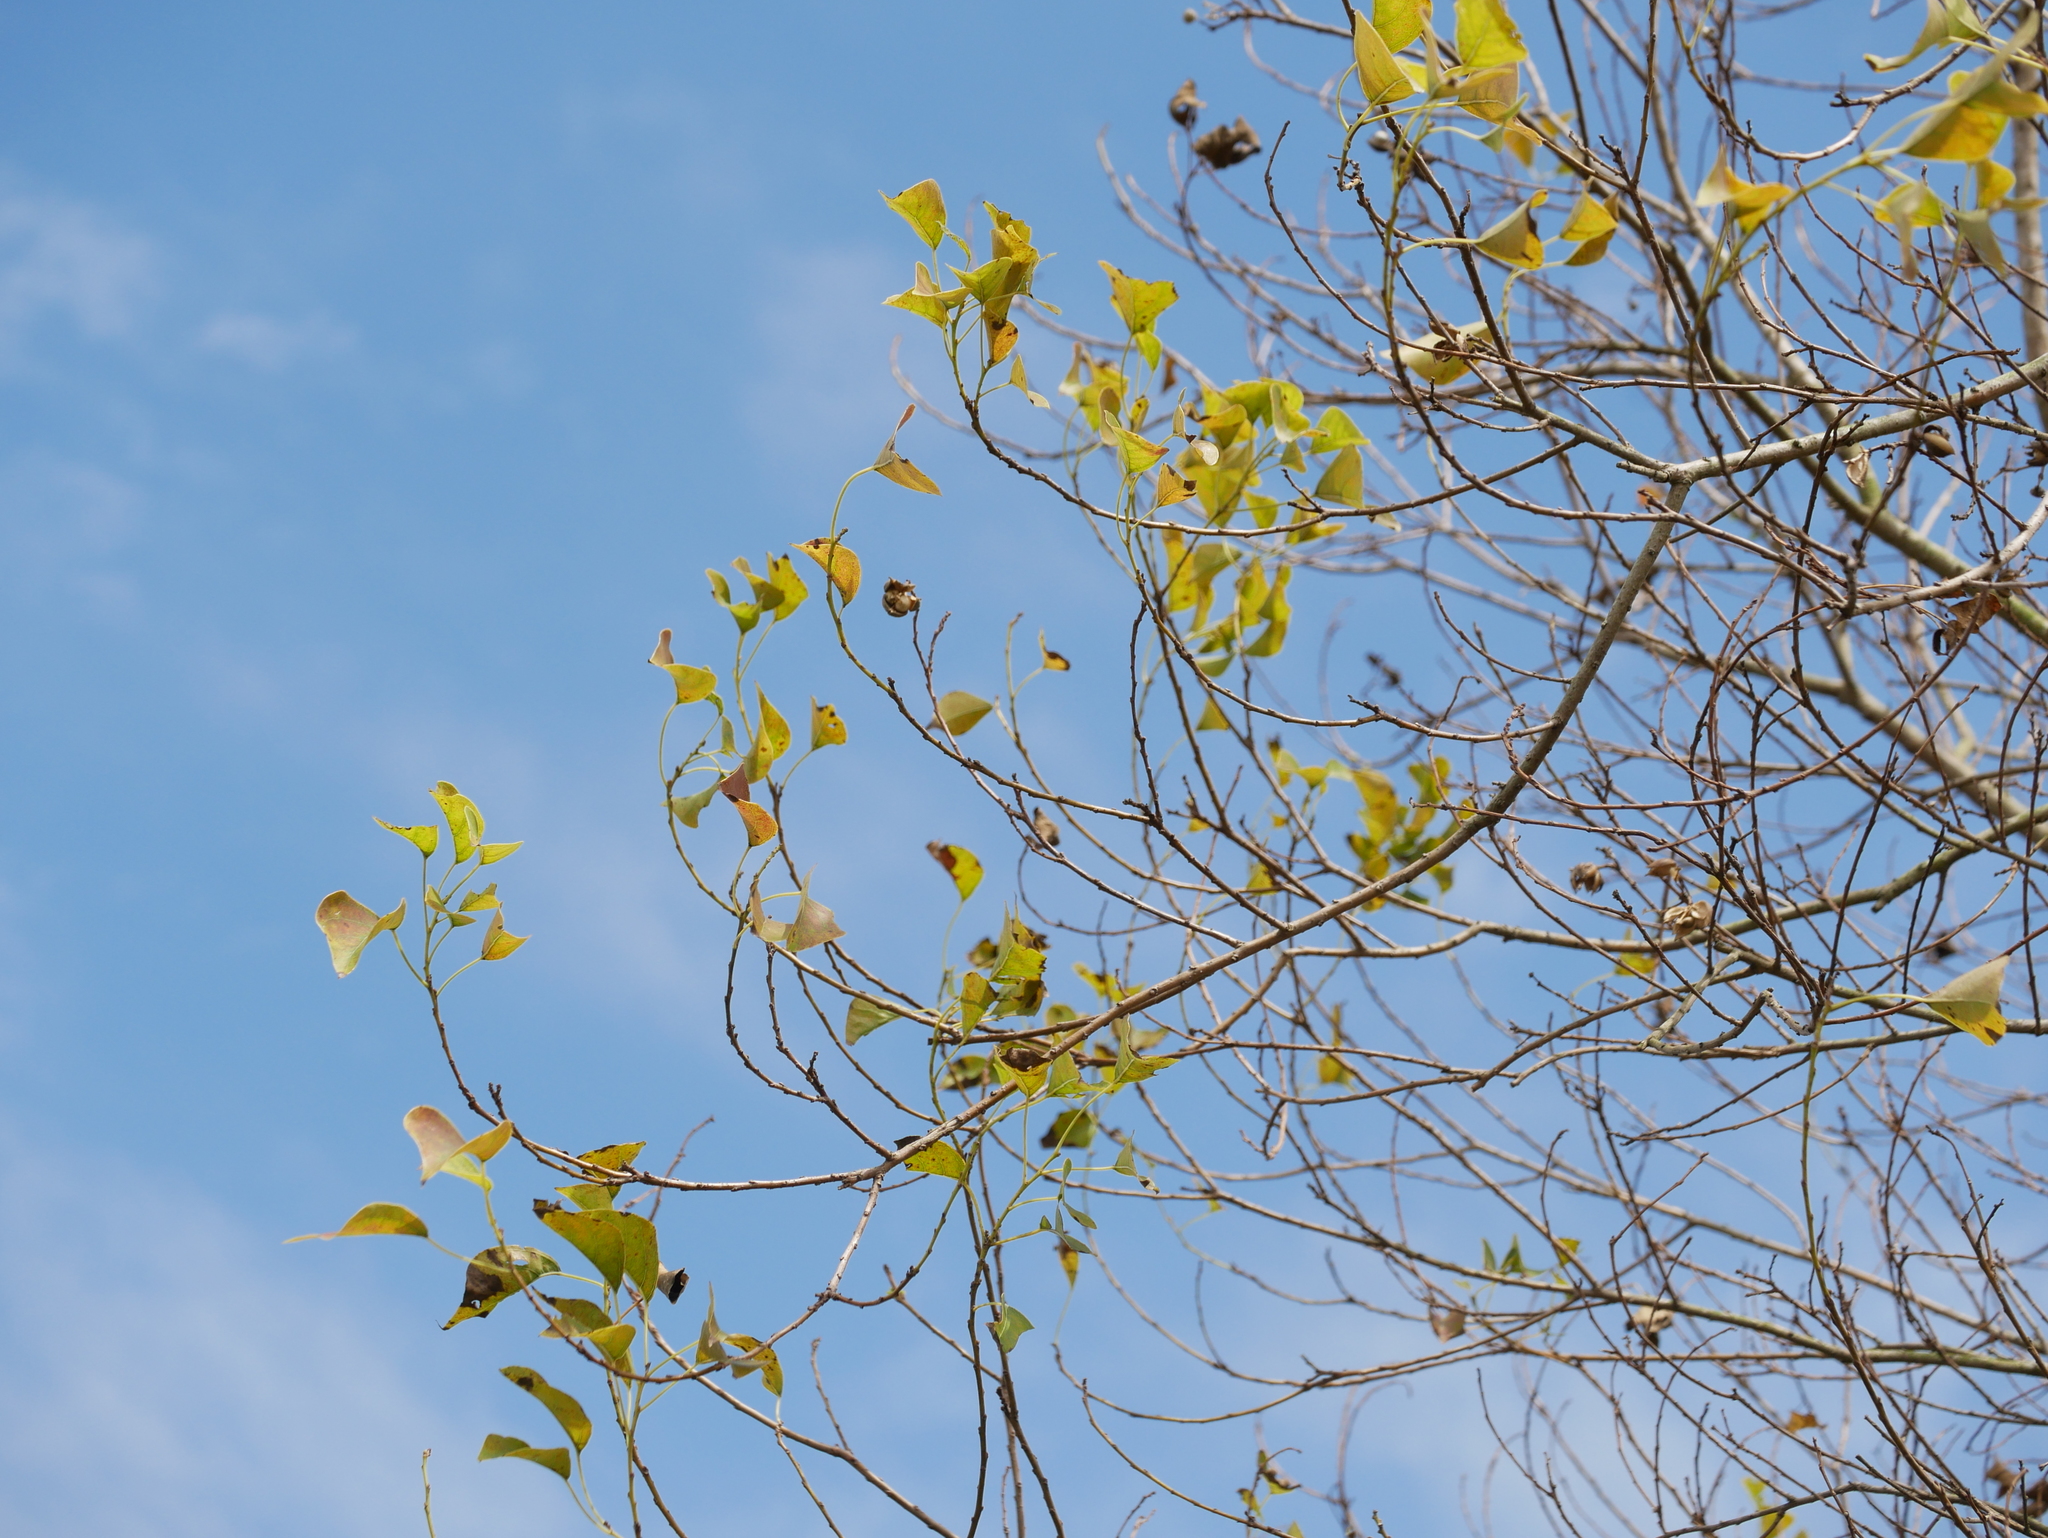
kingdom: Plantae
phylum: Tracheophyta
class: Magnoliopsida
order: Malpighiales
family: Euphorbiaceae
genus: Triadica
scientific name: Triadica sebifera
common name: Chinese tallow
